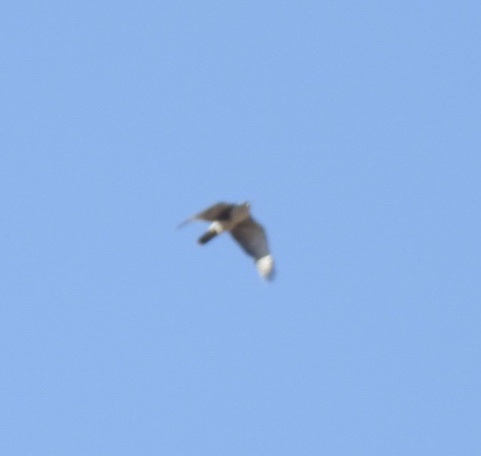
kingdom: Animalia
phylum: Chordata
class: Aves
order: Accipitriformes
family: Accipitridae
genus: Accipiter
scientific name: Accipiter melanoleucus
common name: Black sparrowhawk
